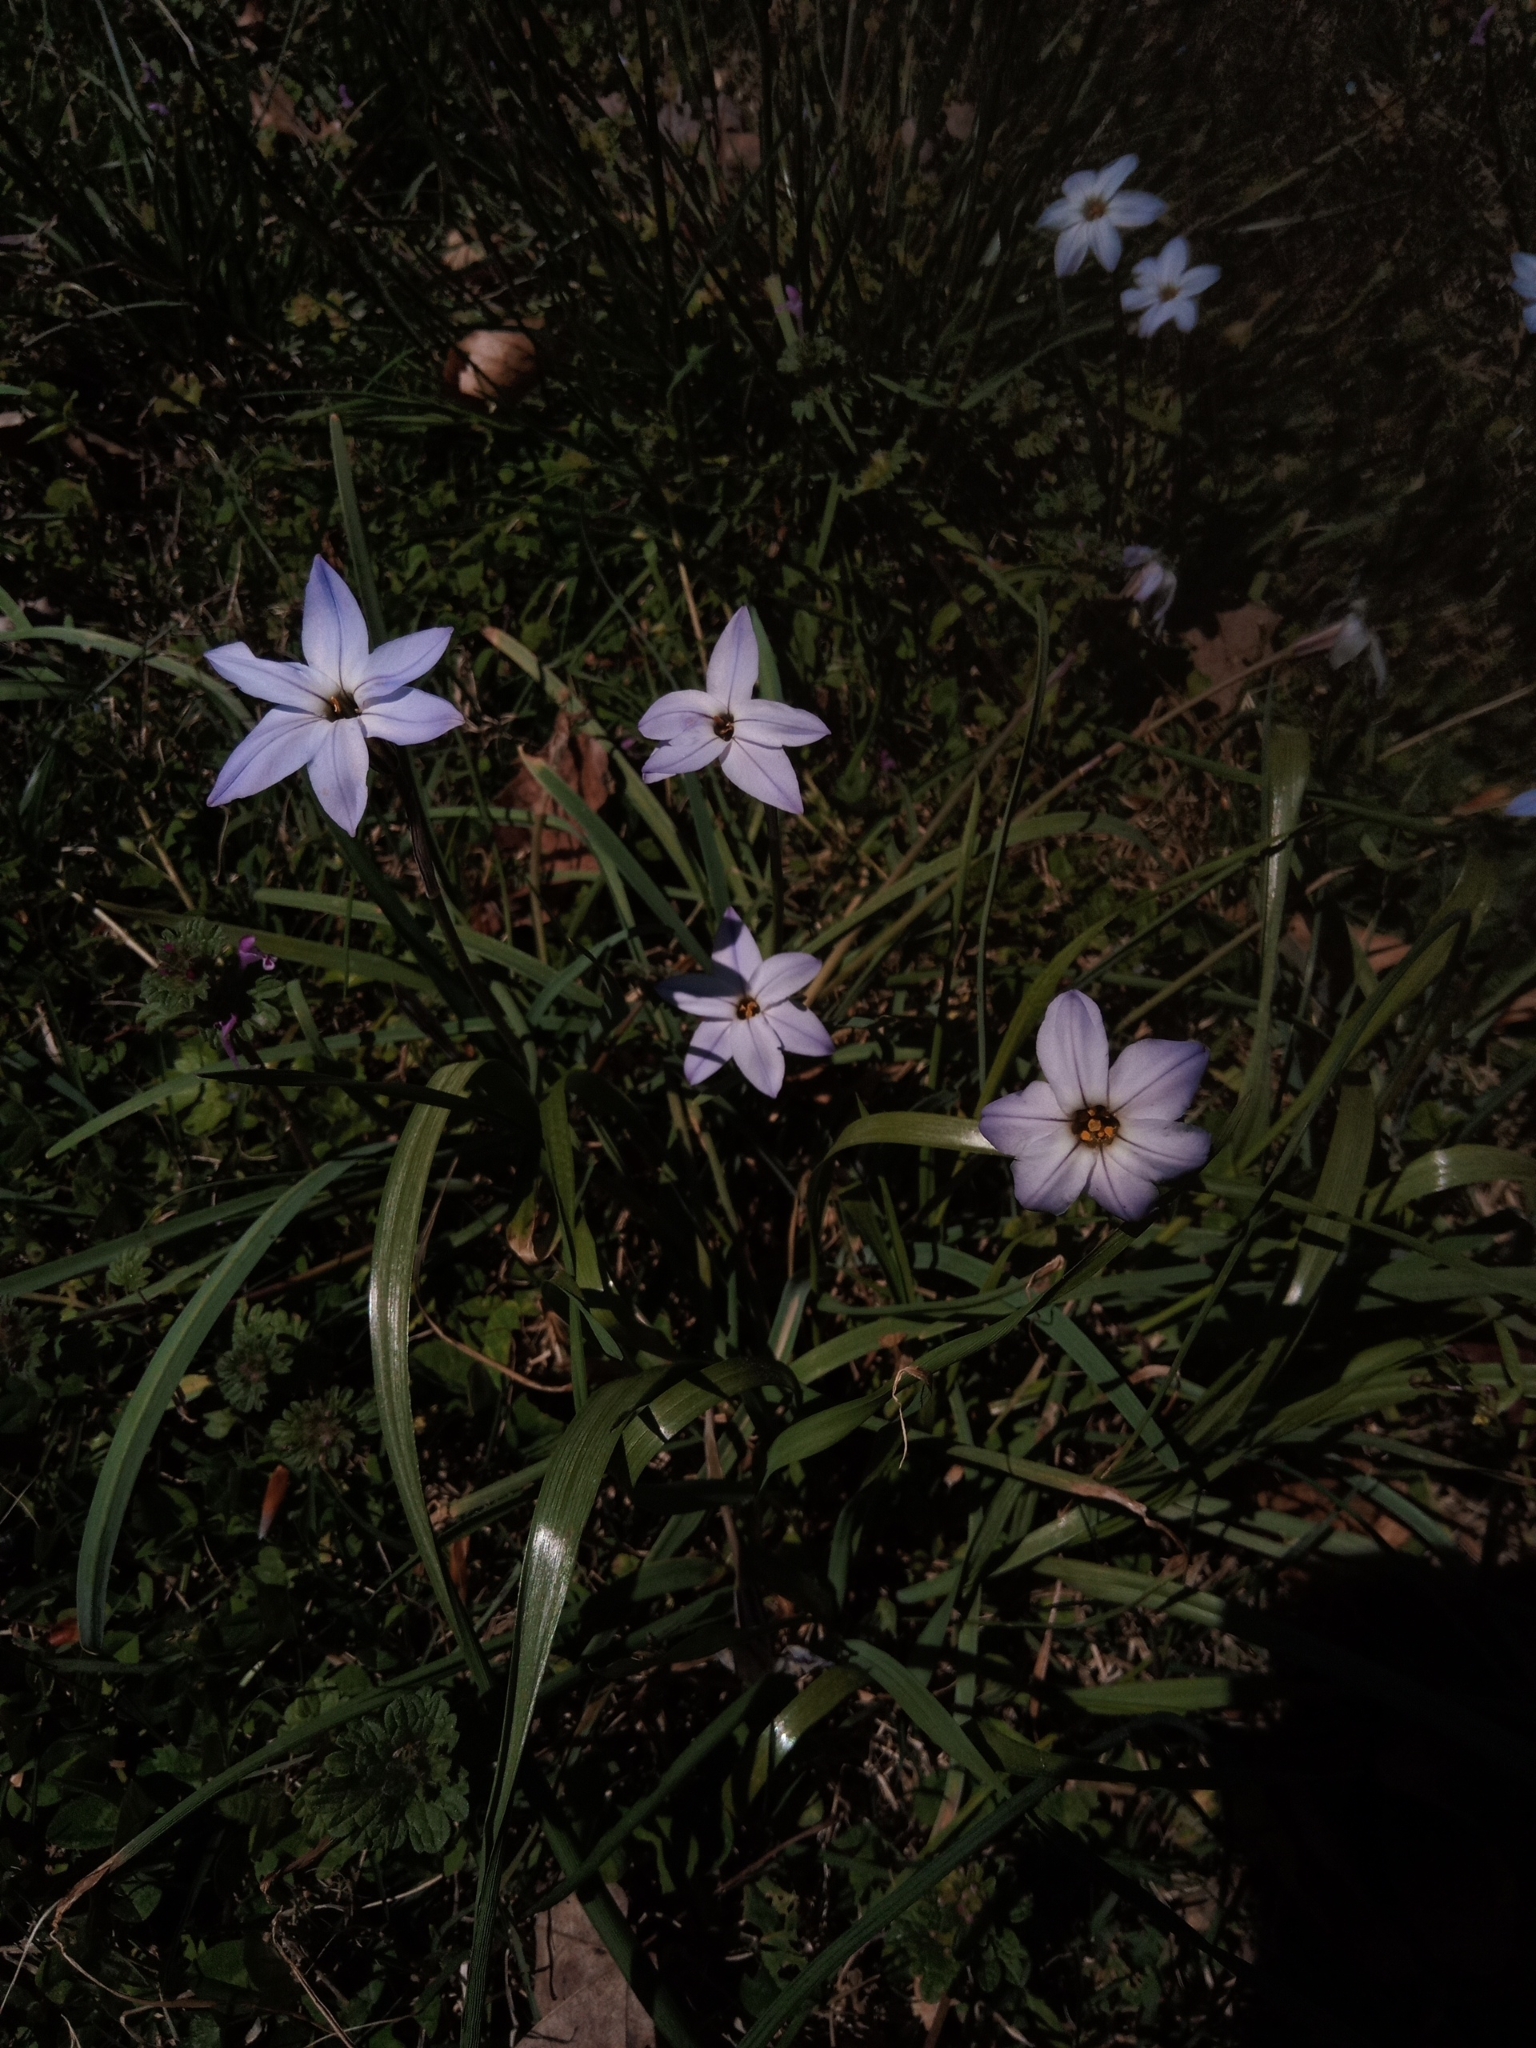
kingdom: Plantae
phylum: Tracheophyta
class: Liliopsida
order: Asparagales
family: Amaryllidaceae
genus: Ipheion
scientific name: Ipheion uniflorum
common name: Spring starflower
